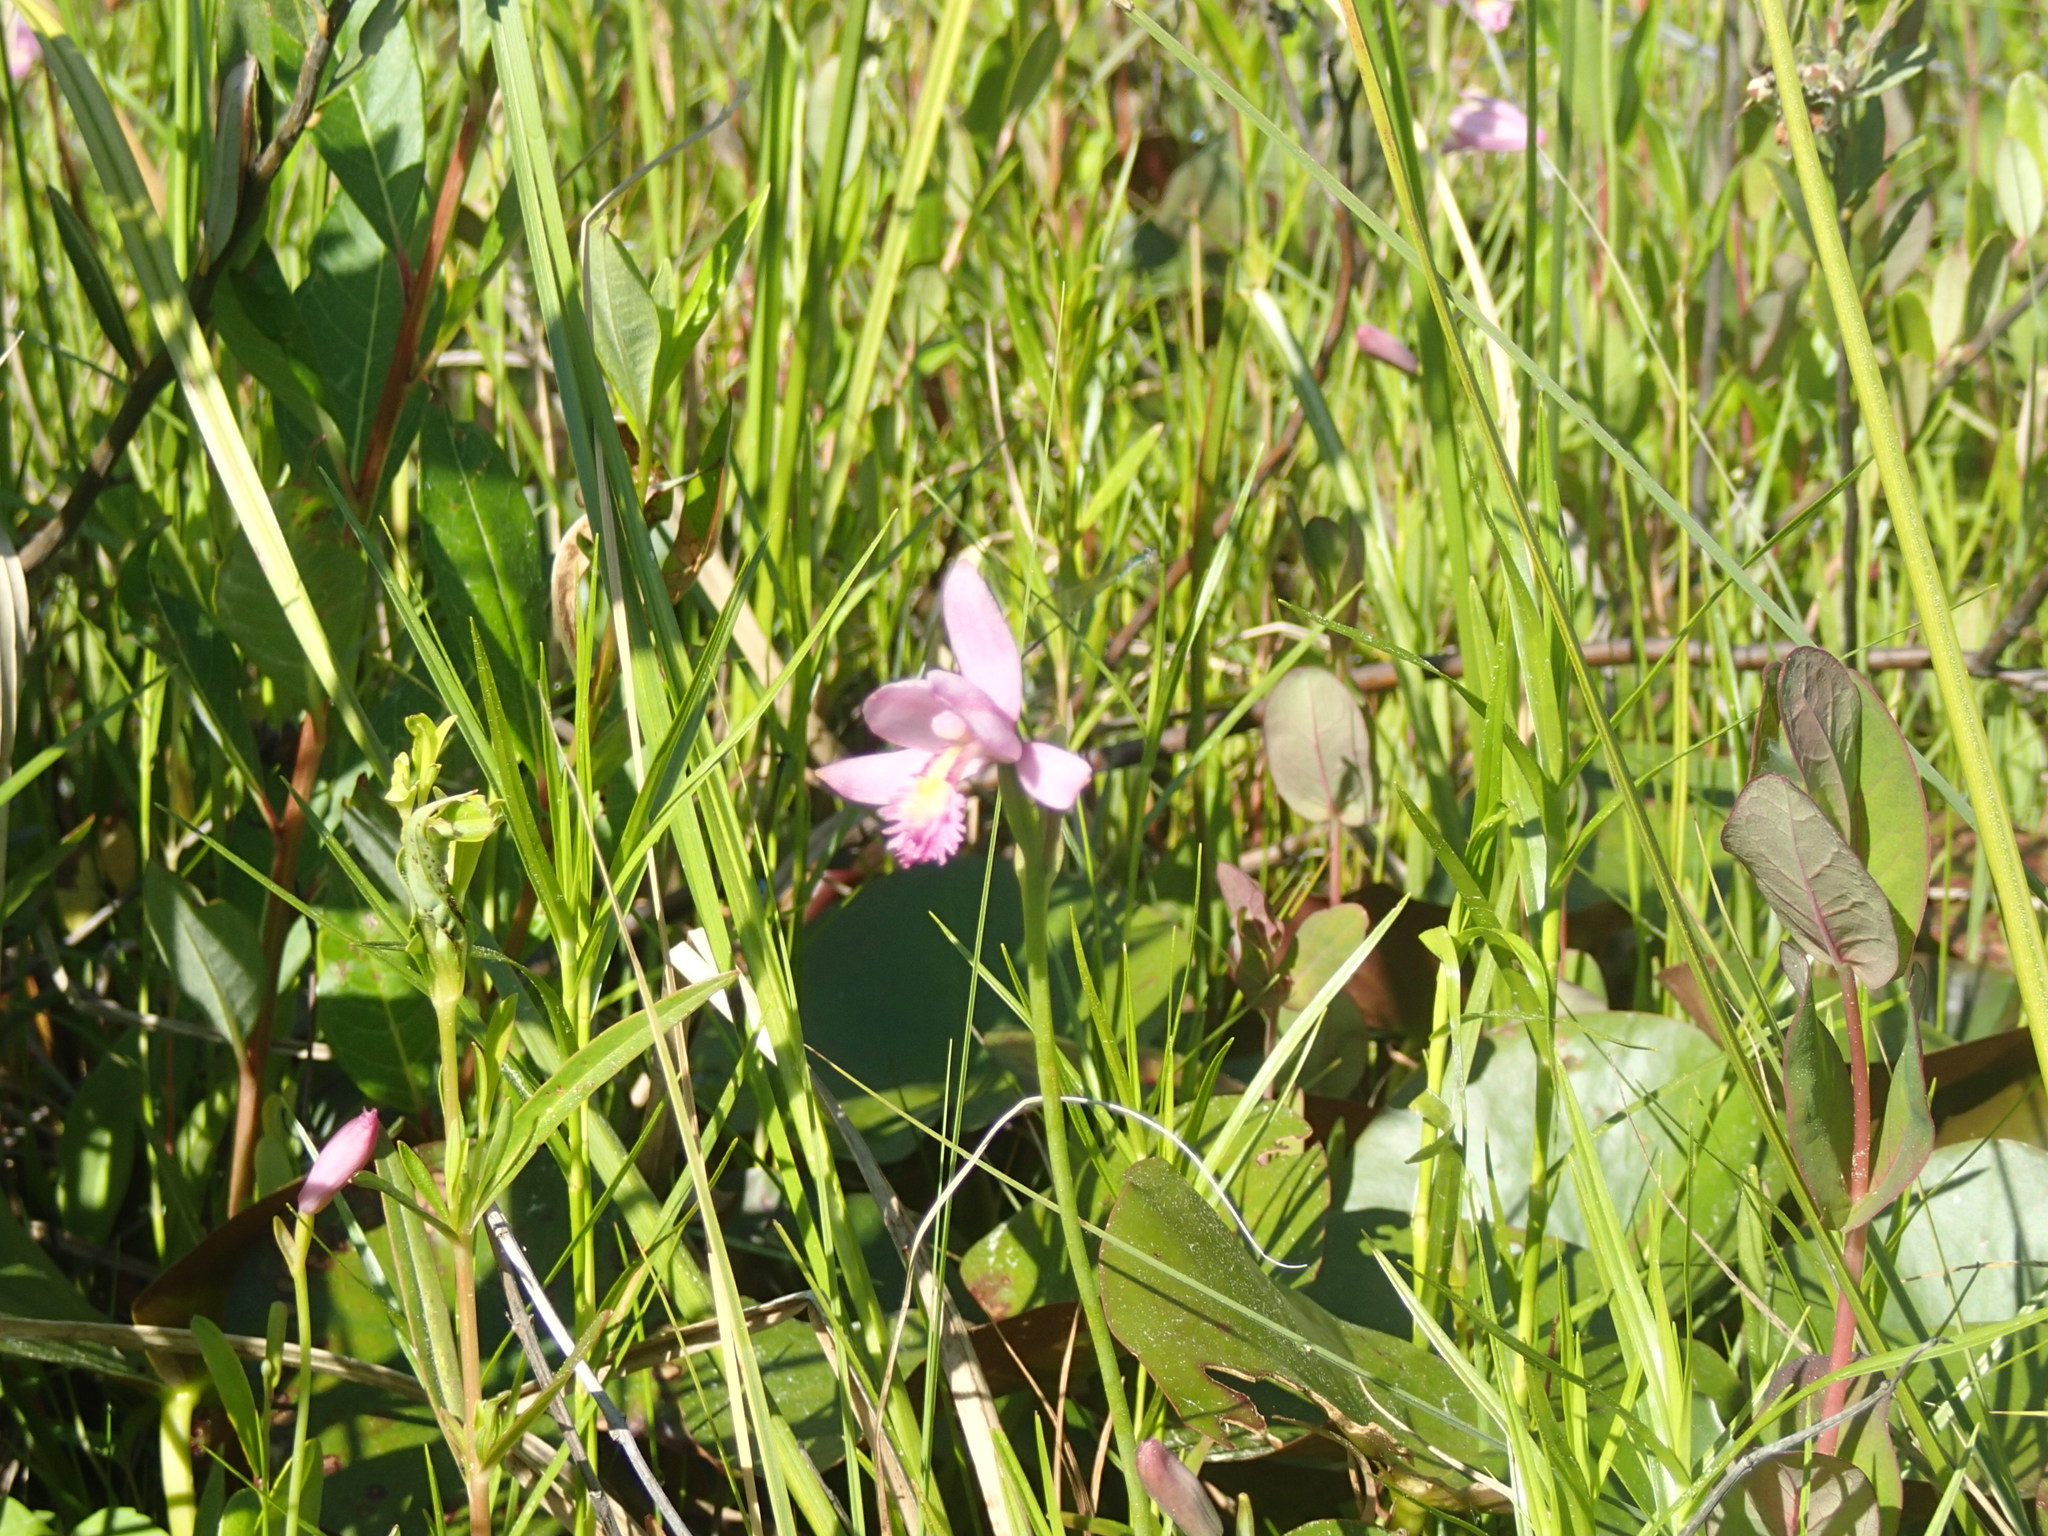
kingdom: Plantae
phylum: Tracheophyta
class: Liliopsida
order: Asparagales
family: Orchidaceae
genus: Pogonia
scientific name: Pogonia ophioglossoides
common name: Rose pogonia
